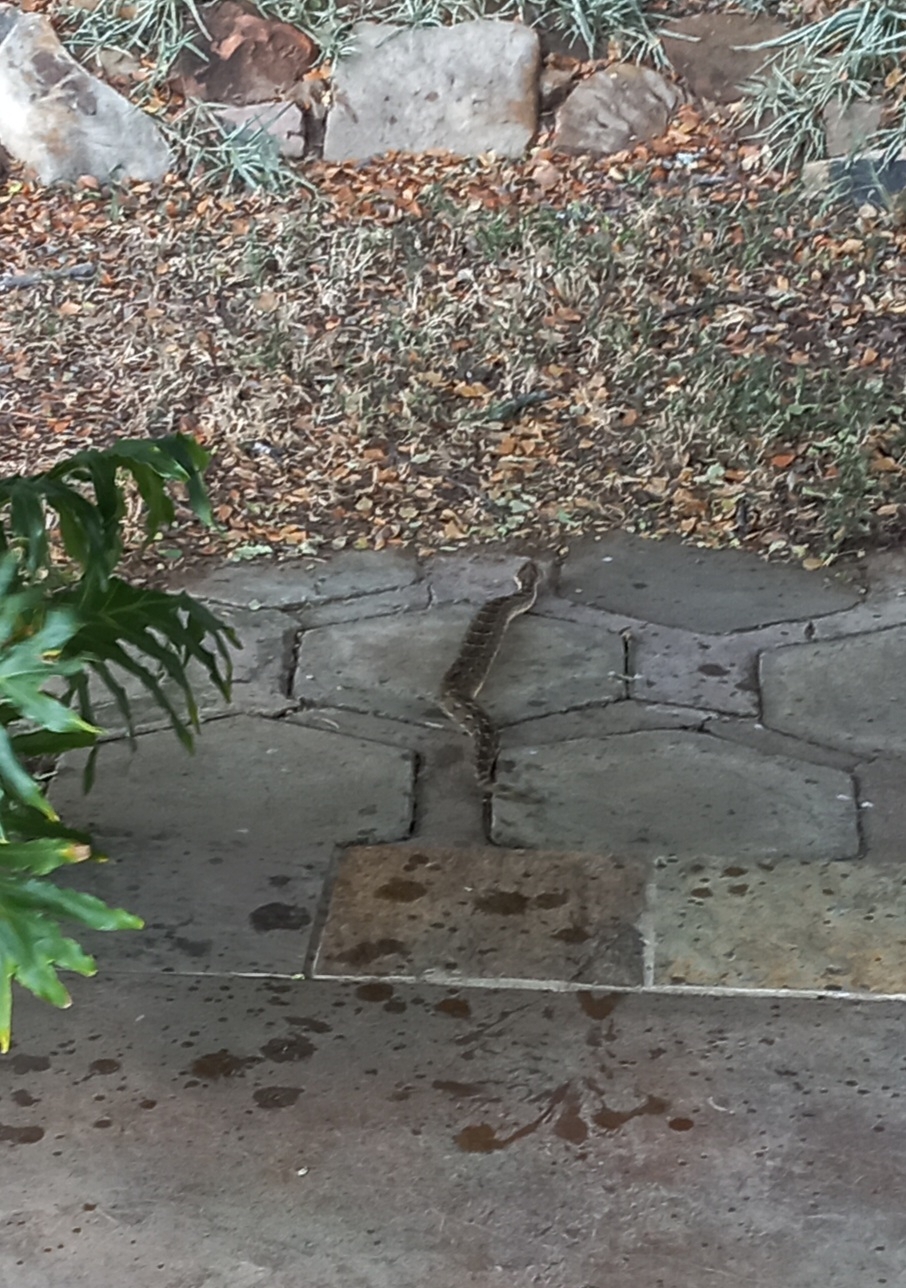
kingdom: Animalia
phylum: Chordata
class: Squamata
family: Viperidae
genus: Bitis
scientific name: Bitis arietans
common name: Puff adder
